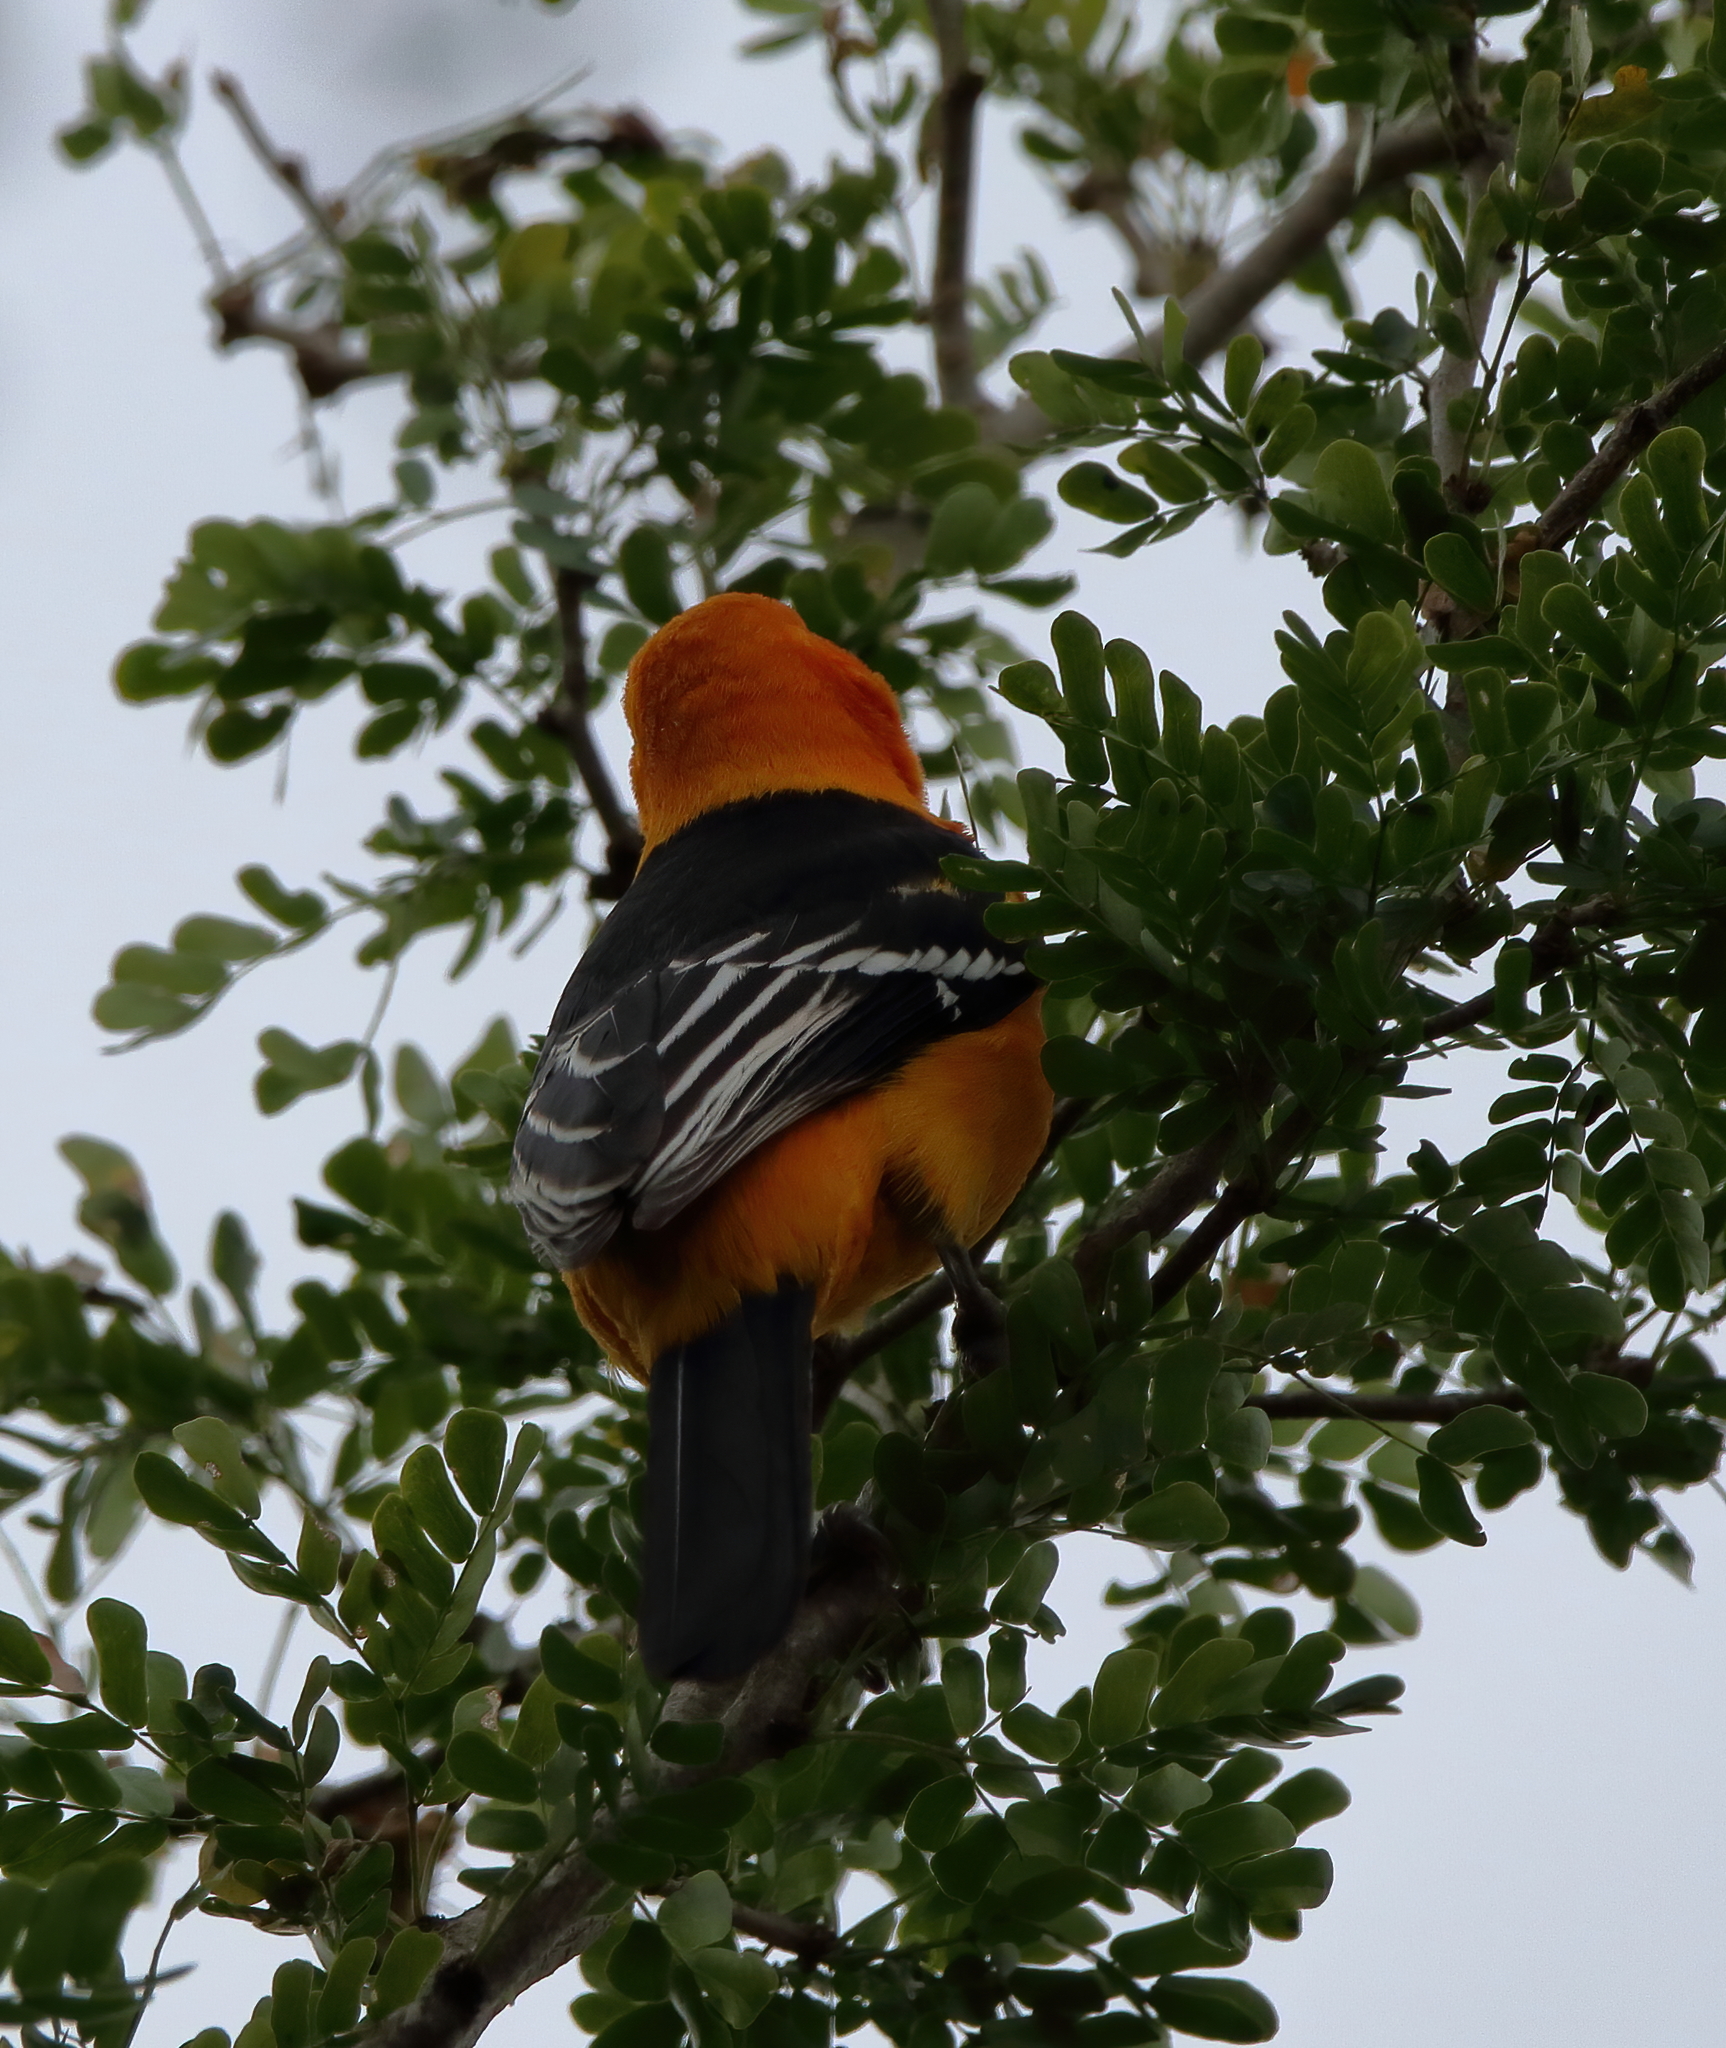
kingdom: Animalia
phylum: Chordata
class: Aves
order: Passeriformes
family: Icteridae
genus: Icterus
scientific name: Icterus gularis
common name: Altamira oriole
